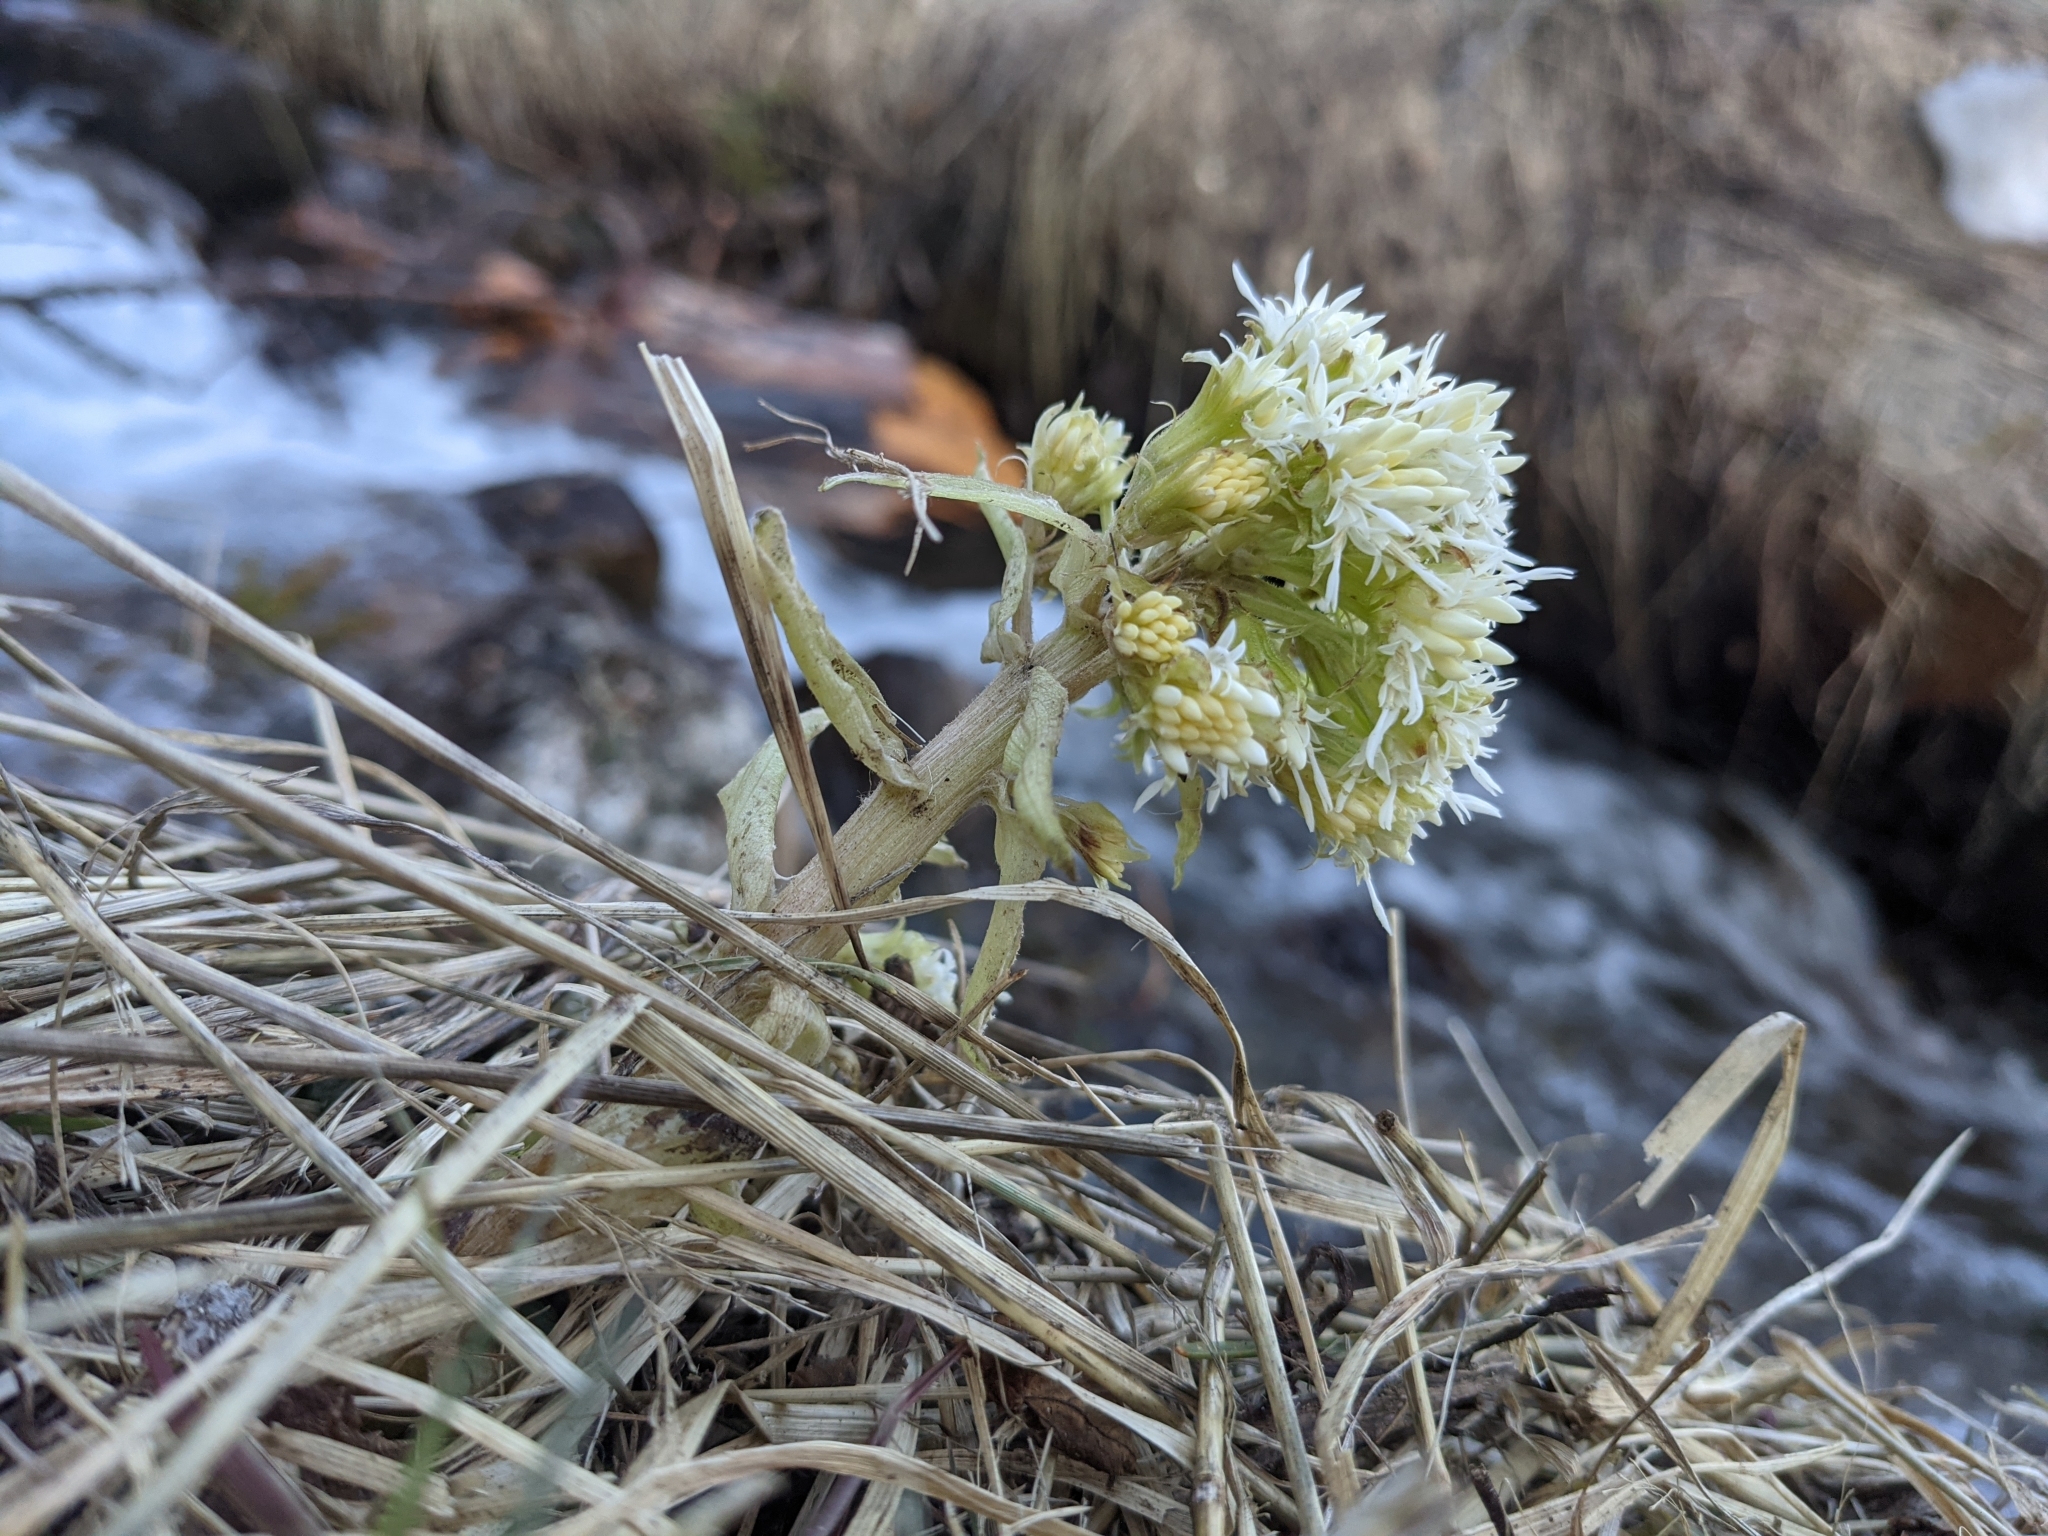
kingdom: Plantae
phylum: Tracheophyta
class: Magnoliopsida
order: Asterales
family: Asteraceae
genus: Petasites
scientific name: Petasites albus
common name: White butterbur
